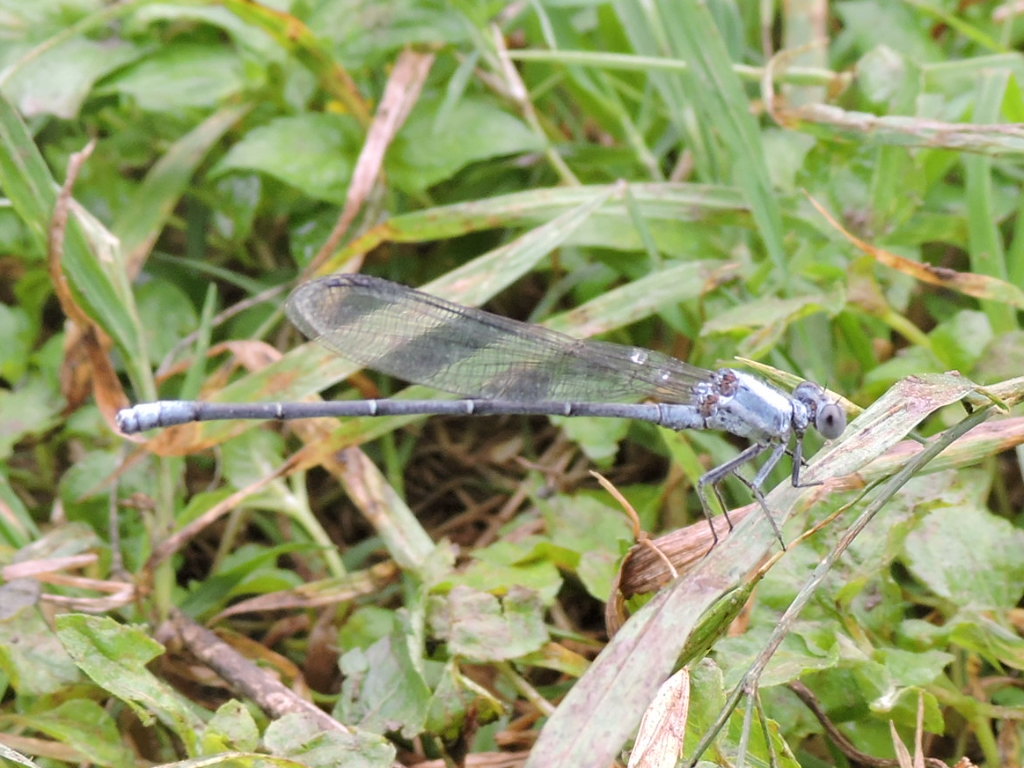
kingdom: Animalia
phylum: Arthropoda
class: Insecta
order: Odonata
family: Coenagrionidae
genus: Argia
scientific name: Argia moesta
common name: Powdered dancer
